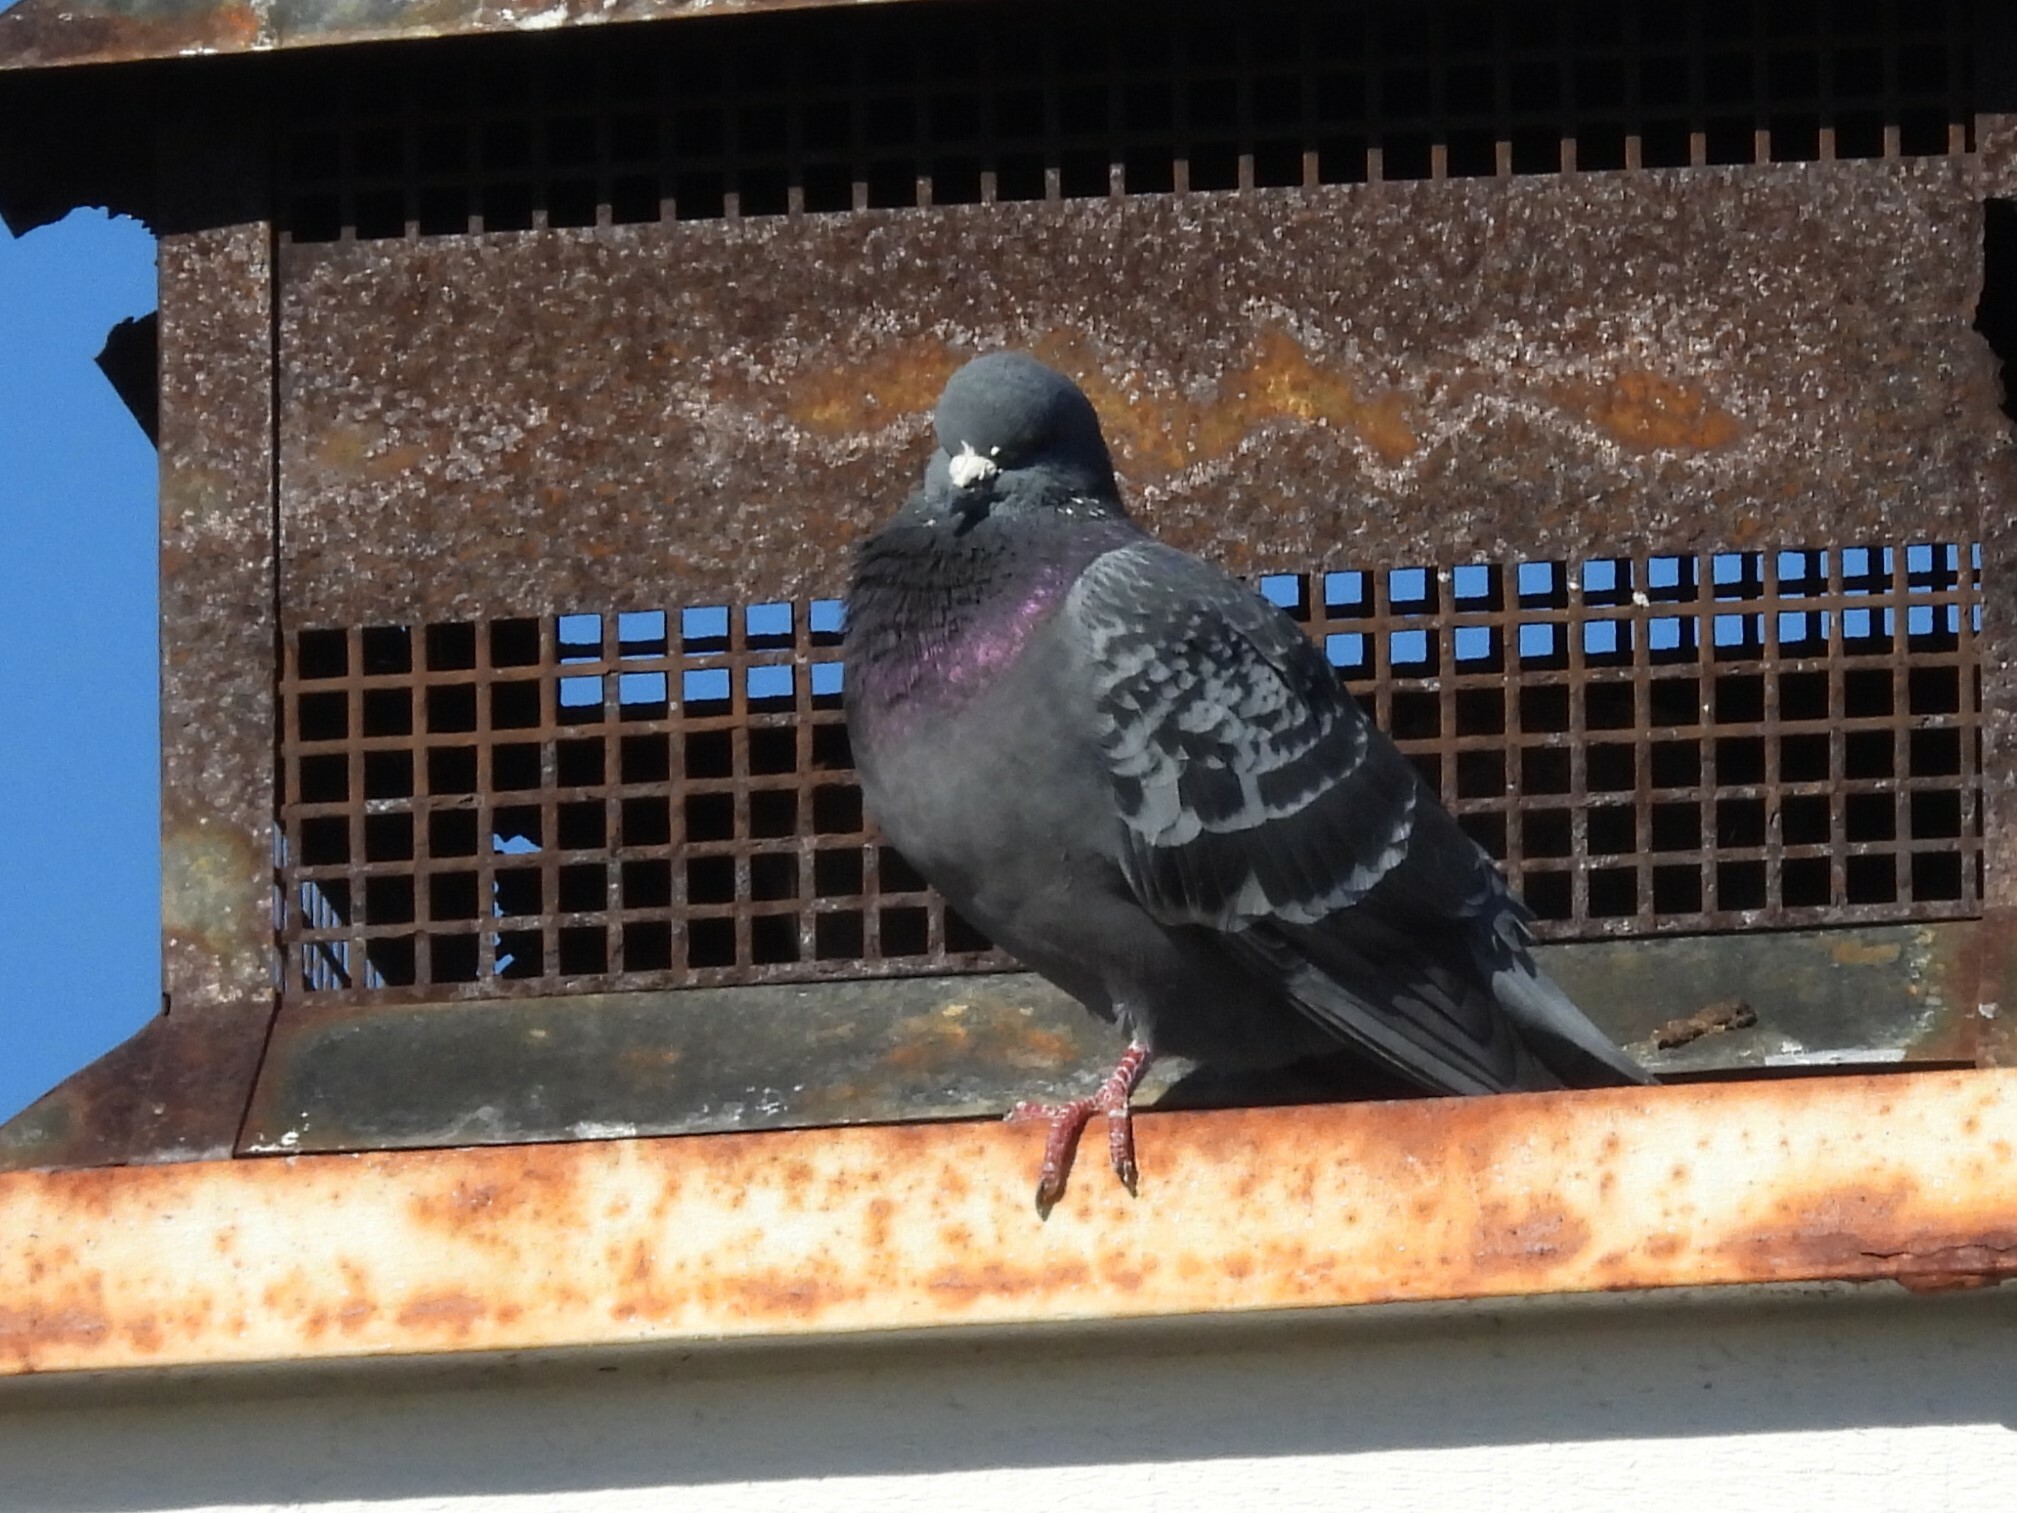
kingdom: Animalia
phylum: Chordata
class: Aves
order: Columbiformes
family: Columbidae
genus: Columba
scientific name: Columba livia
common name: Rock pigeon
